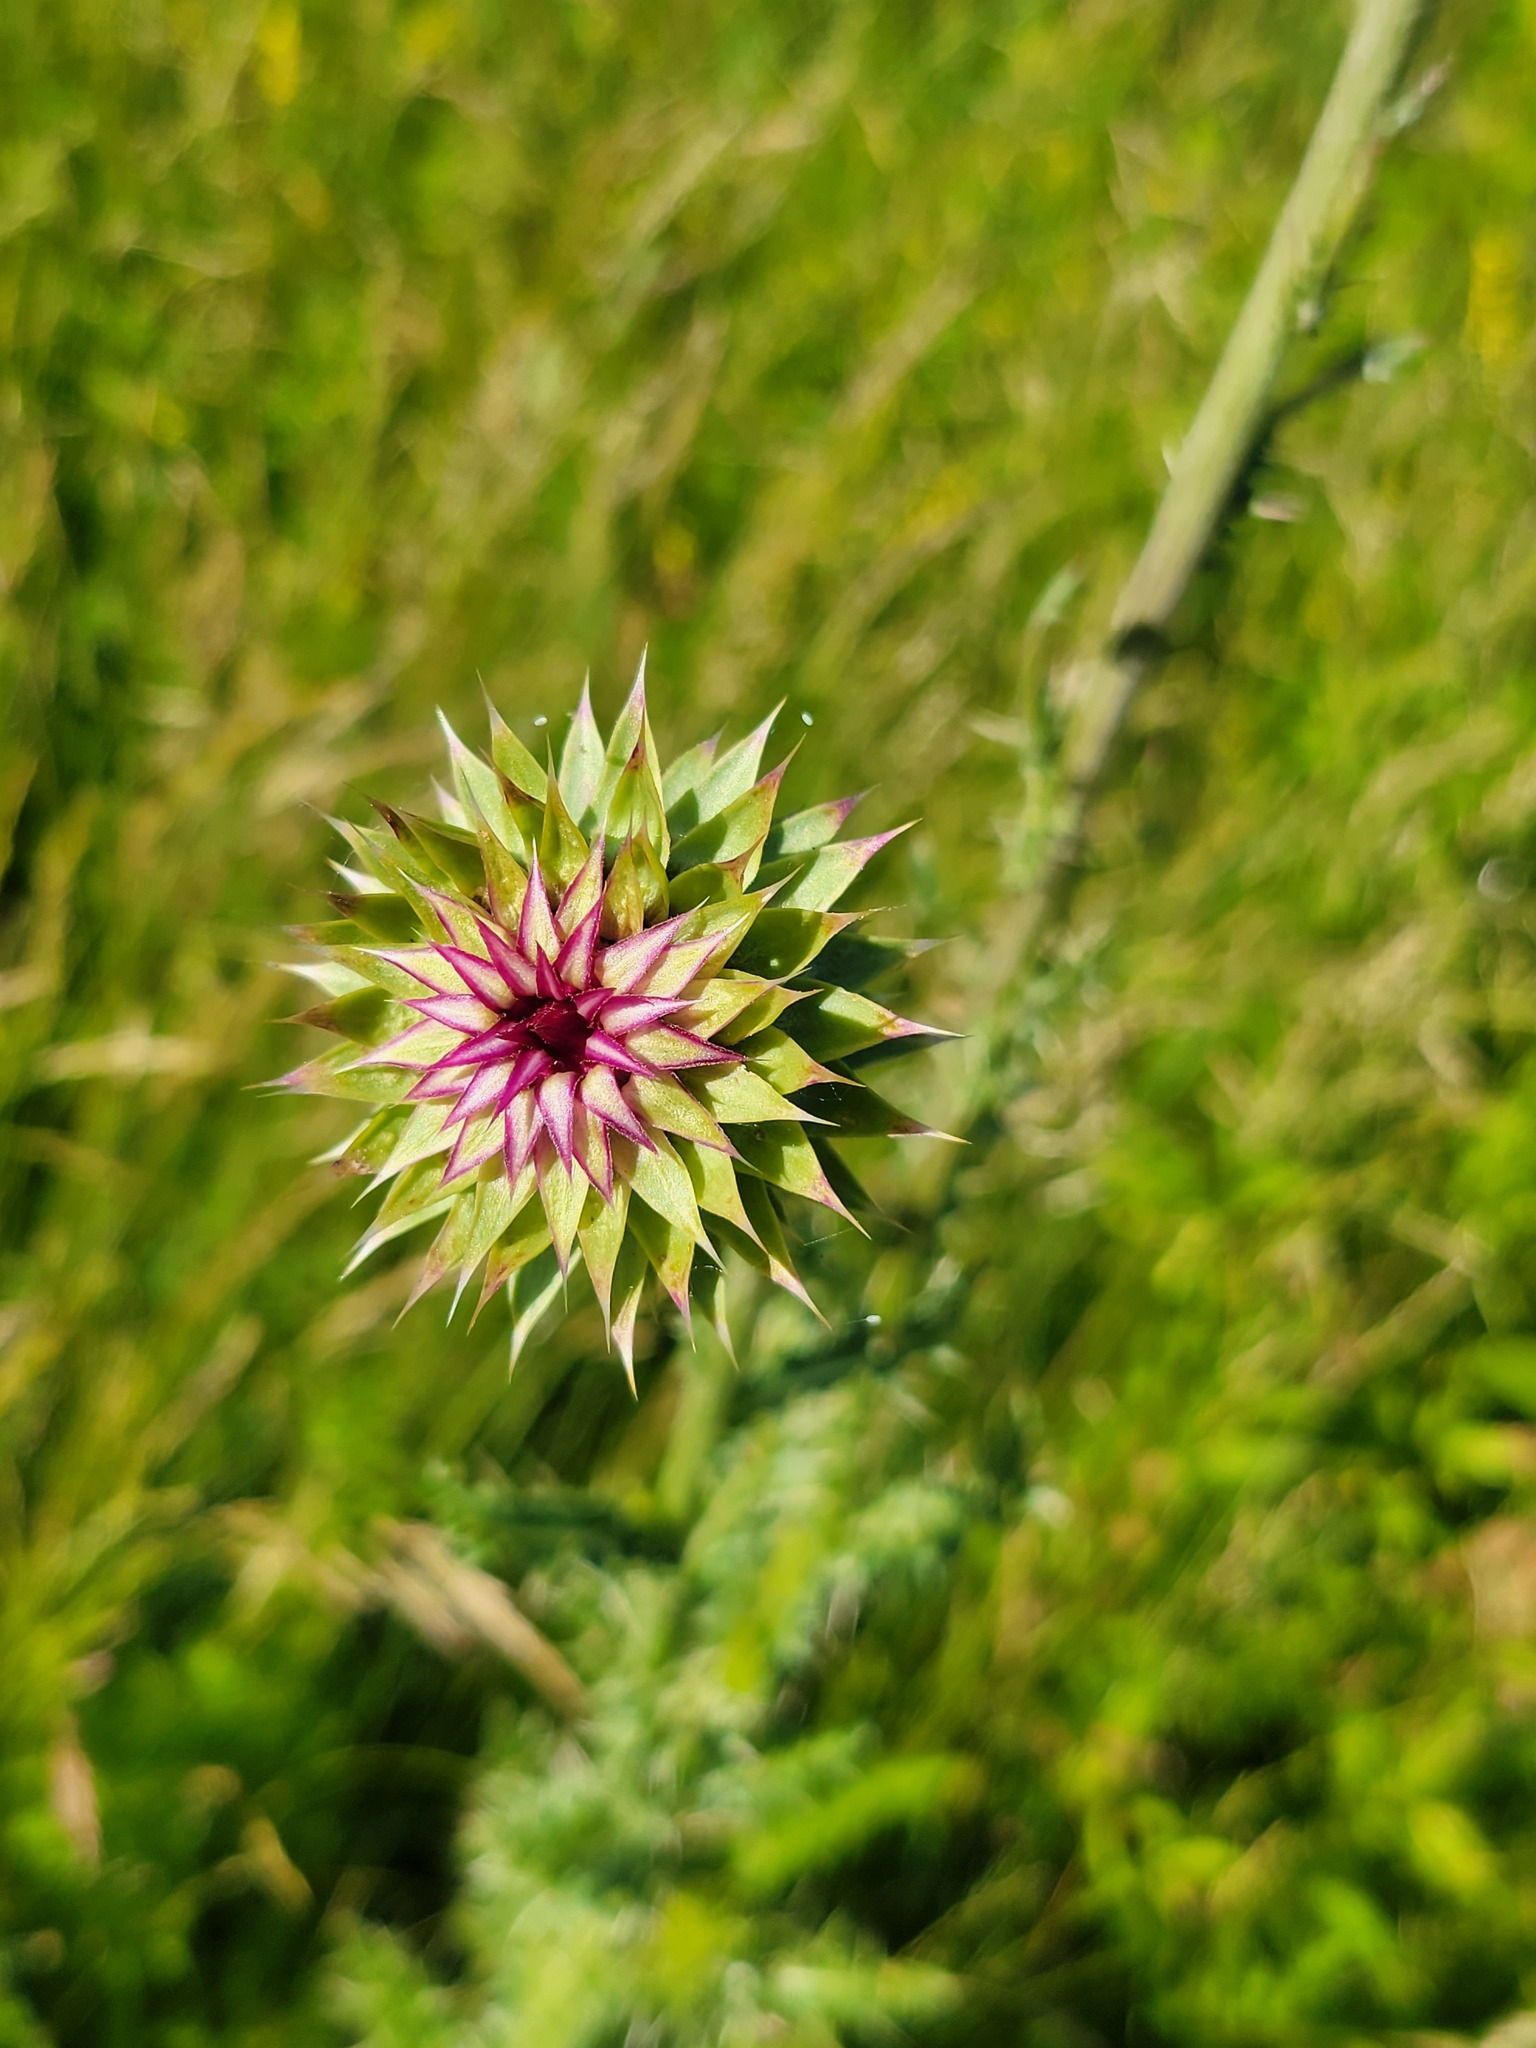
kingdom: Plantae
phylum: Tracheophyta
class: Magnoliopsida
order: Asterales
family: Asteraceae
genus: Carduus
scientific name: Carduus nutans
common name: Musk thistle
